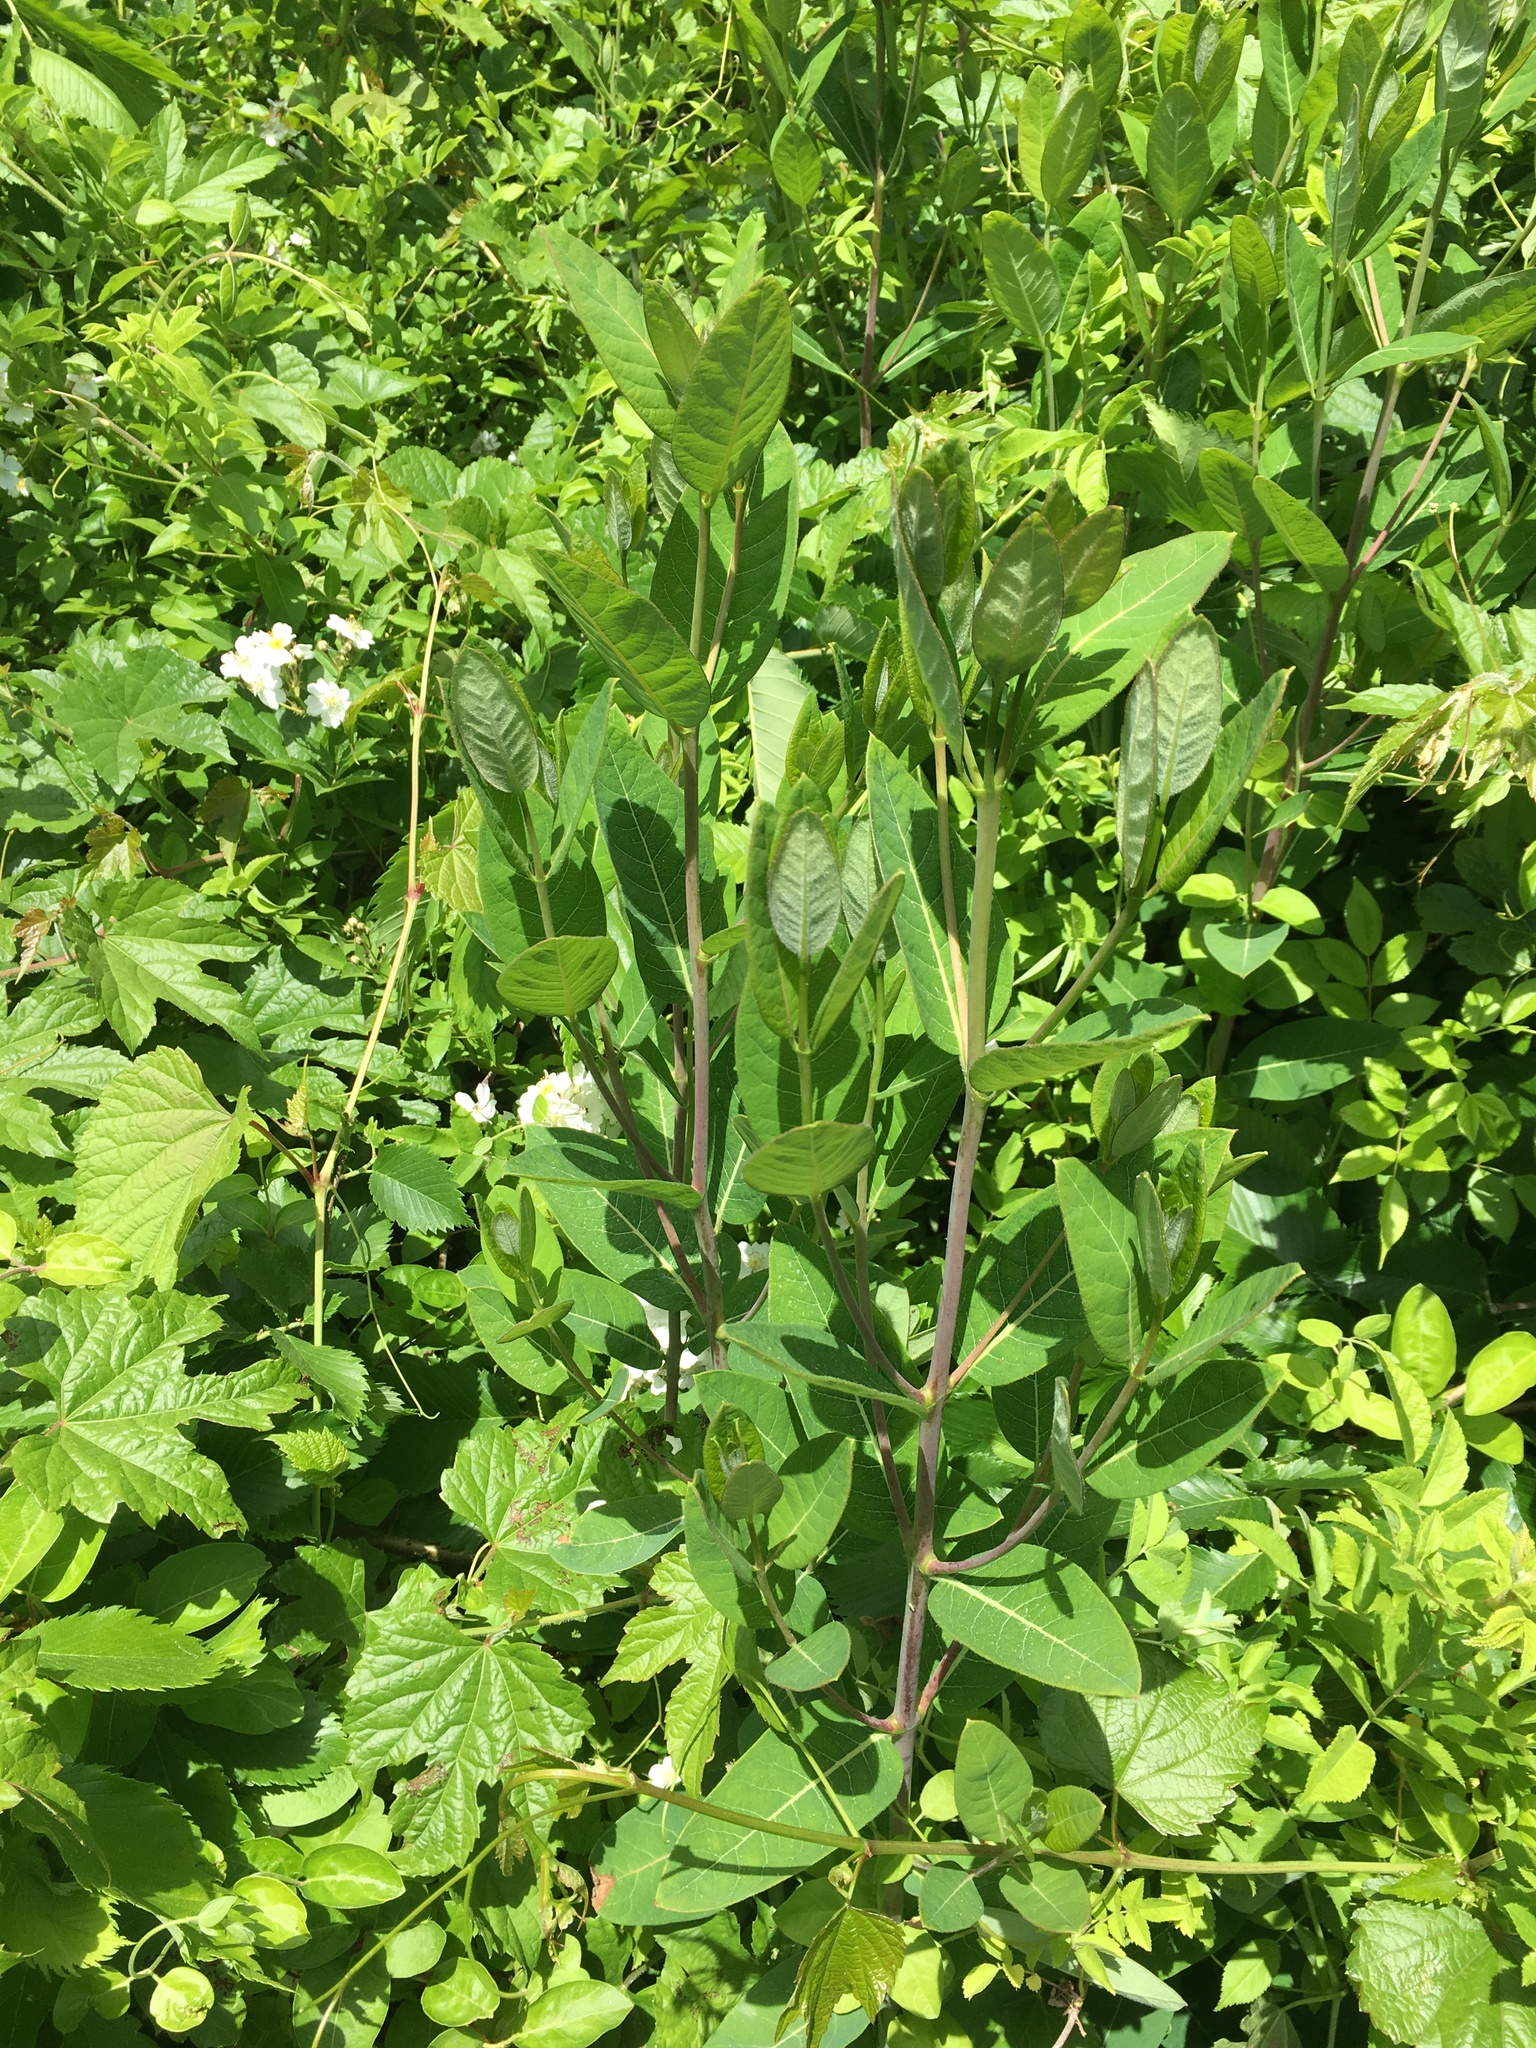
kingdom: Plantae
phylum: Tracheophyta
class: Magnoliopsida
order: Gentianales
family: Apocynaceae
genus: Apocynum
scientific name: Apocynum cannabinum
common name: Hemp dogbane
